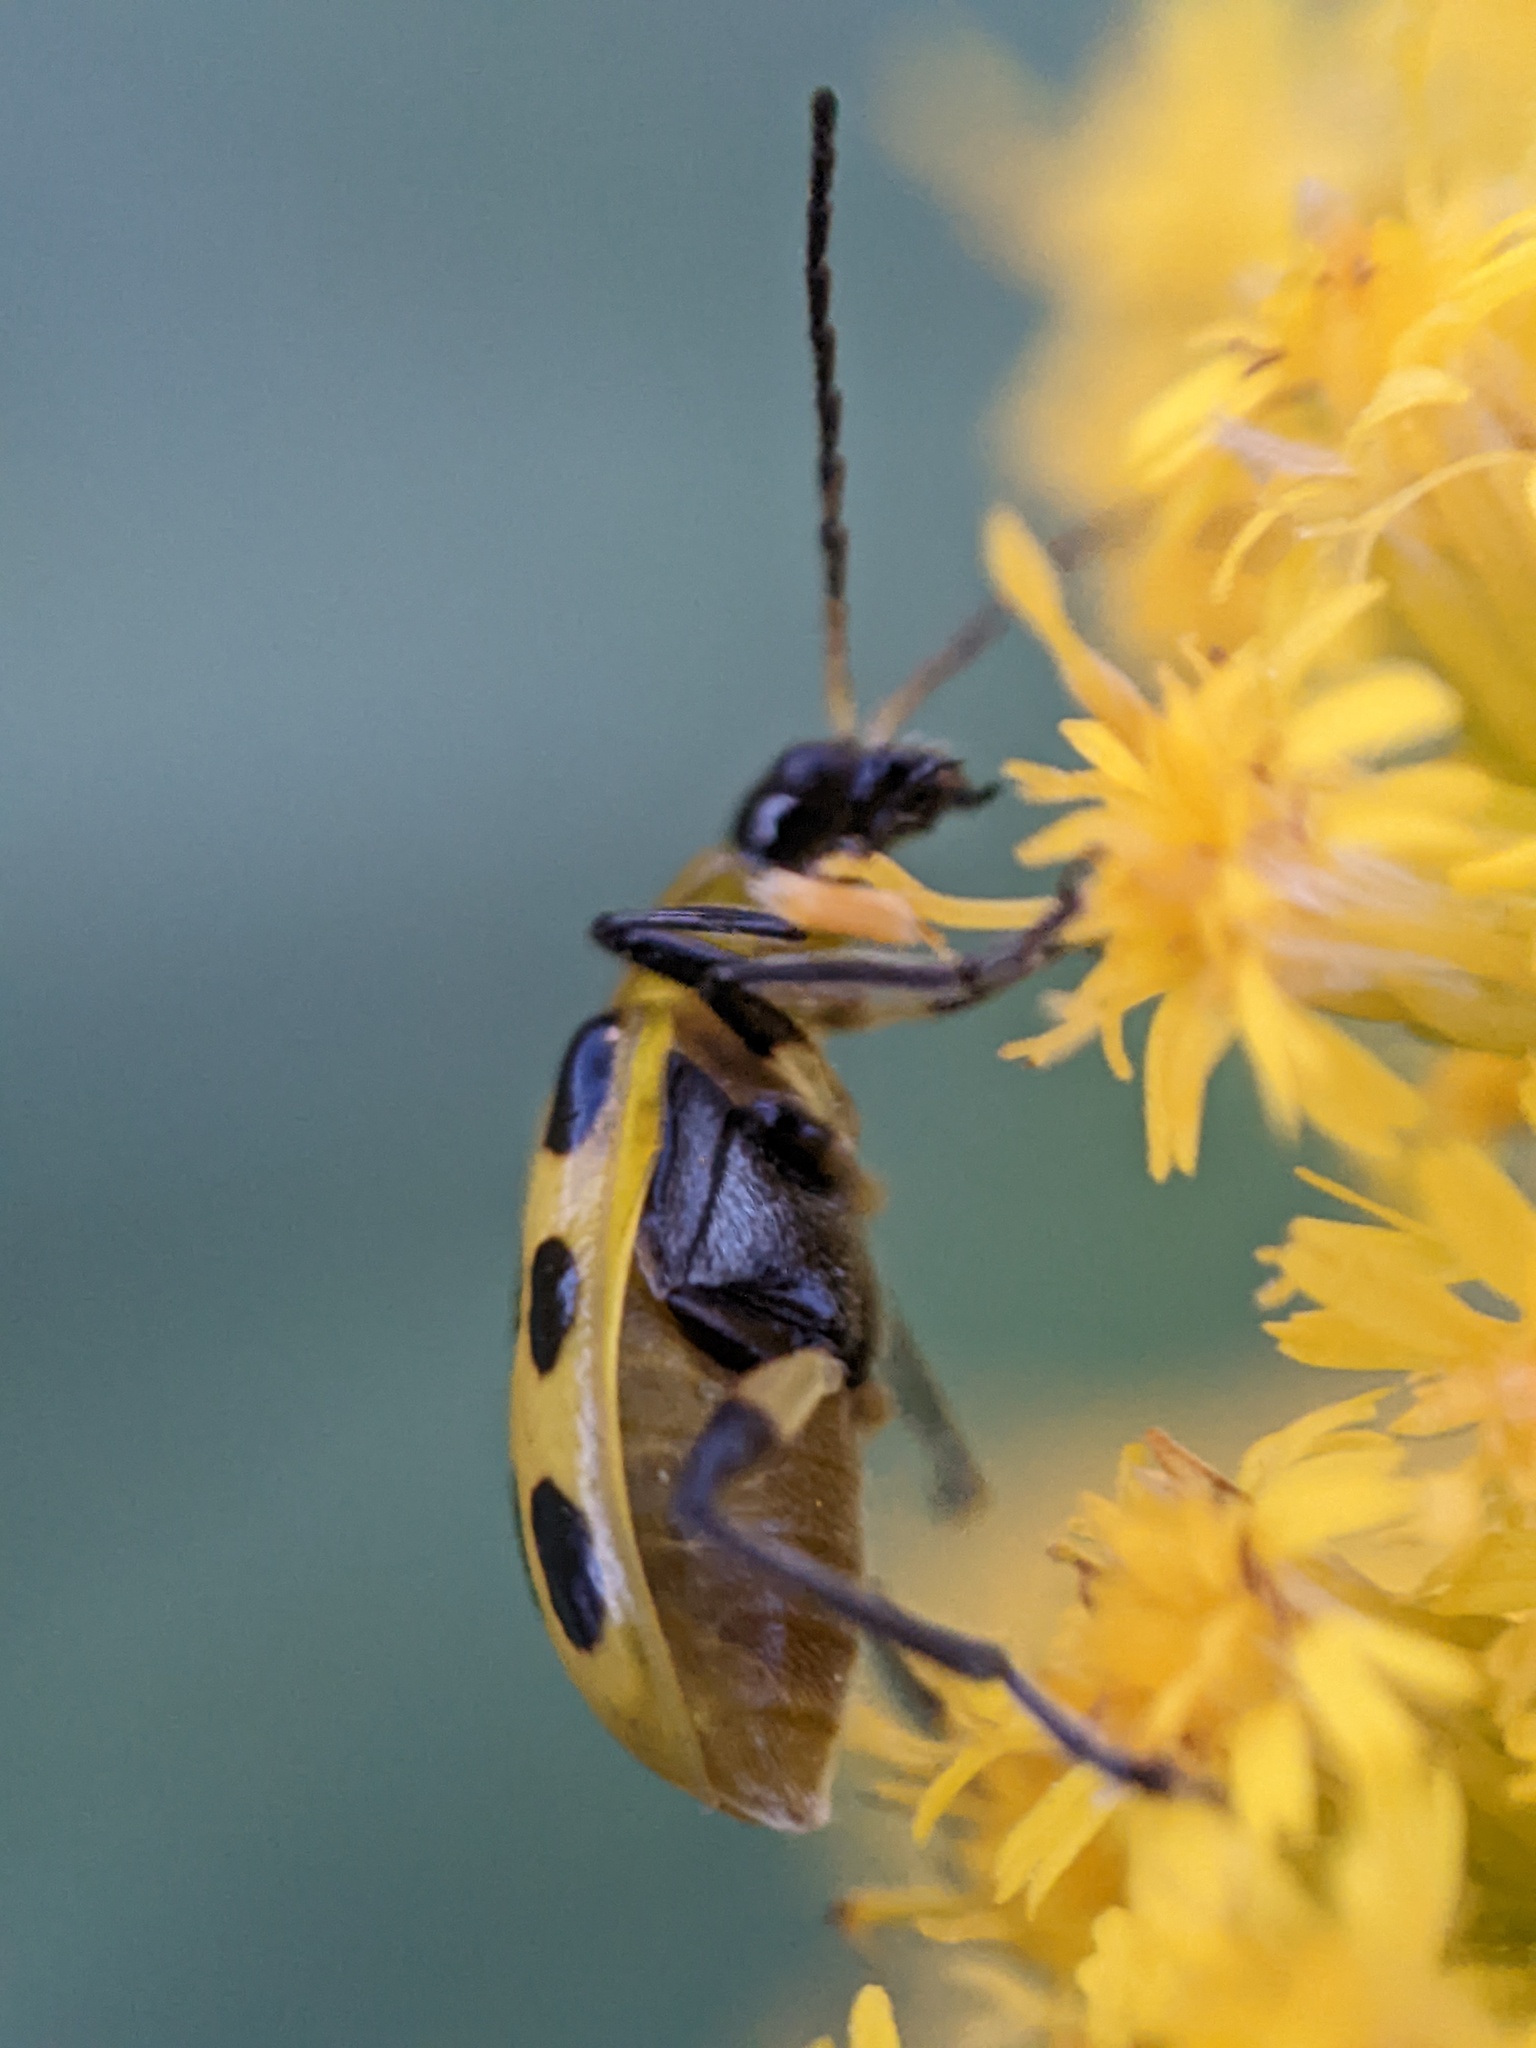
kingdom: Animalia
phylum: Arthropoda
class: Insecta
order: Coleoptera
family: Chrysomelidae
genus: Diabrotica
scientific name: Diabrotica undecimpunctata
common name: Spotted cucumber beetle
